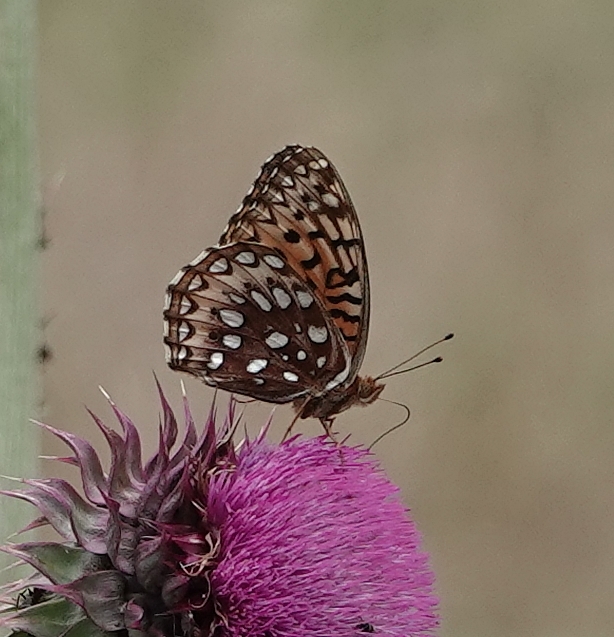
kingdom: Animalia
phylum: Arthropoda
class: Insecta
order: Lepidoptera
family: Nymphalidae
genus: Speyeria
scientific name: Speyeria aphrodite
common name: Aphrodite friitllary
